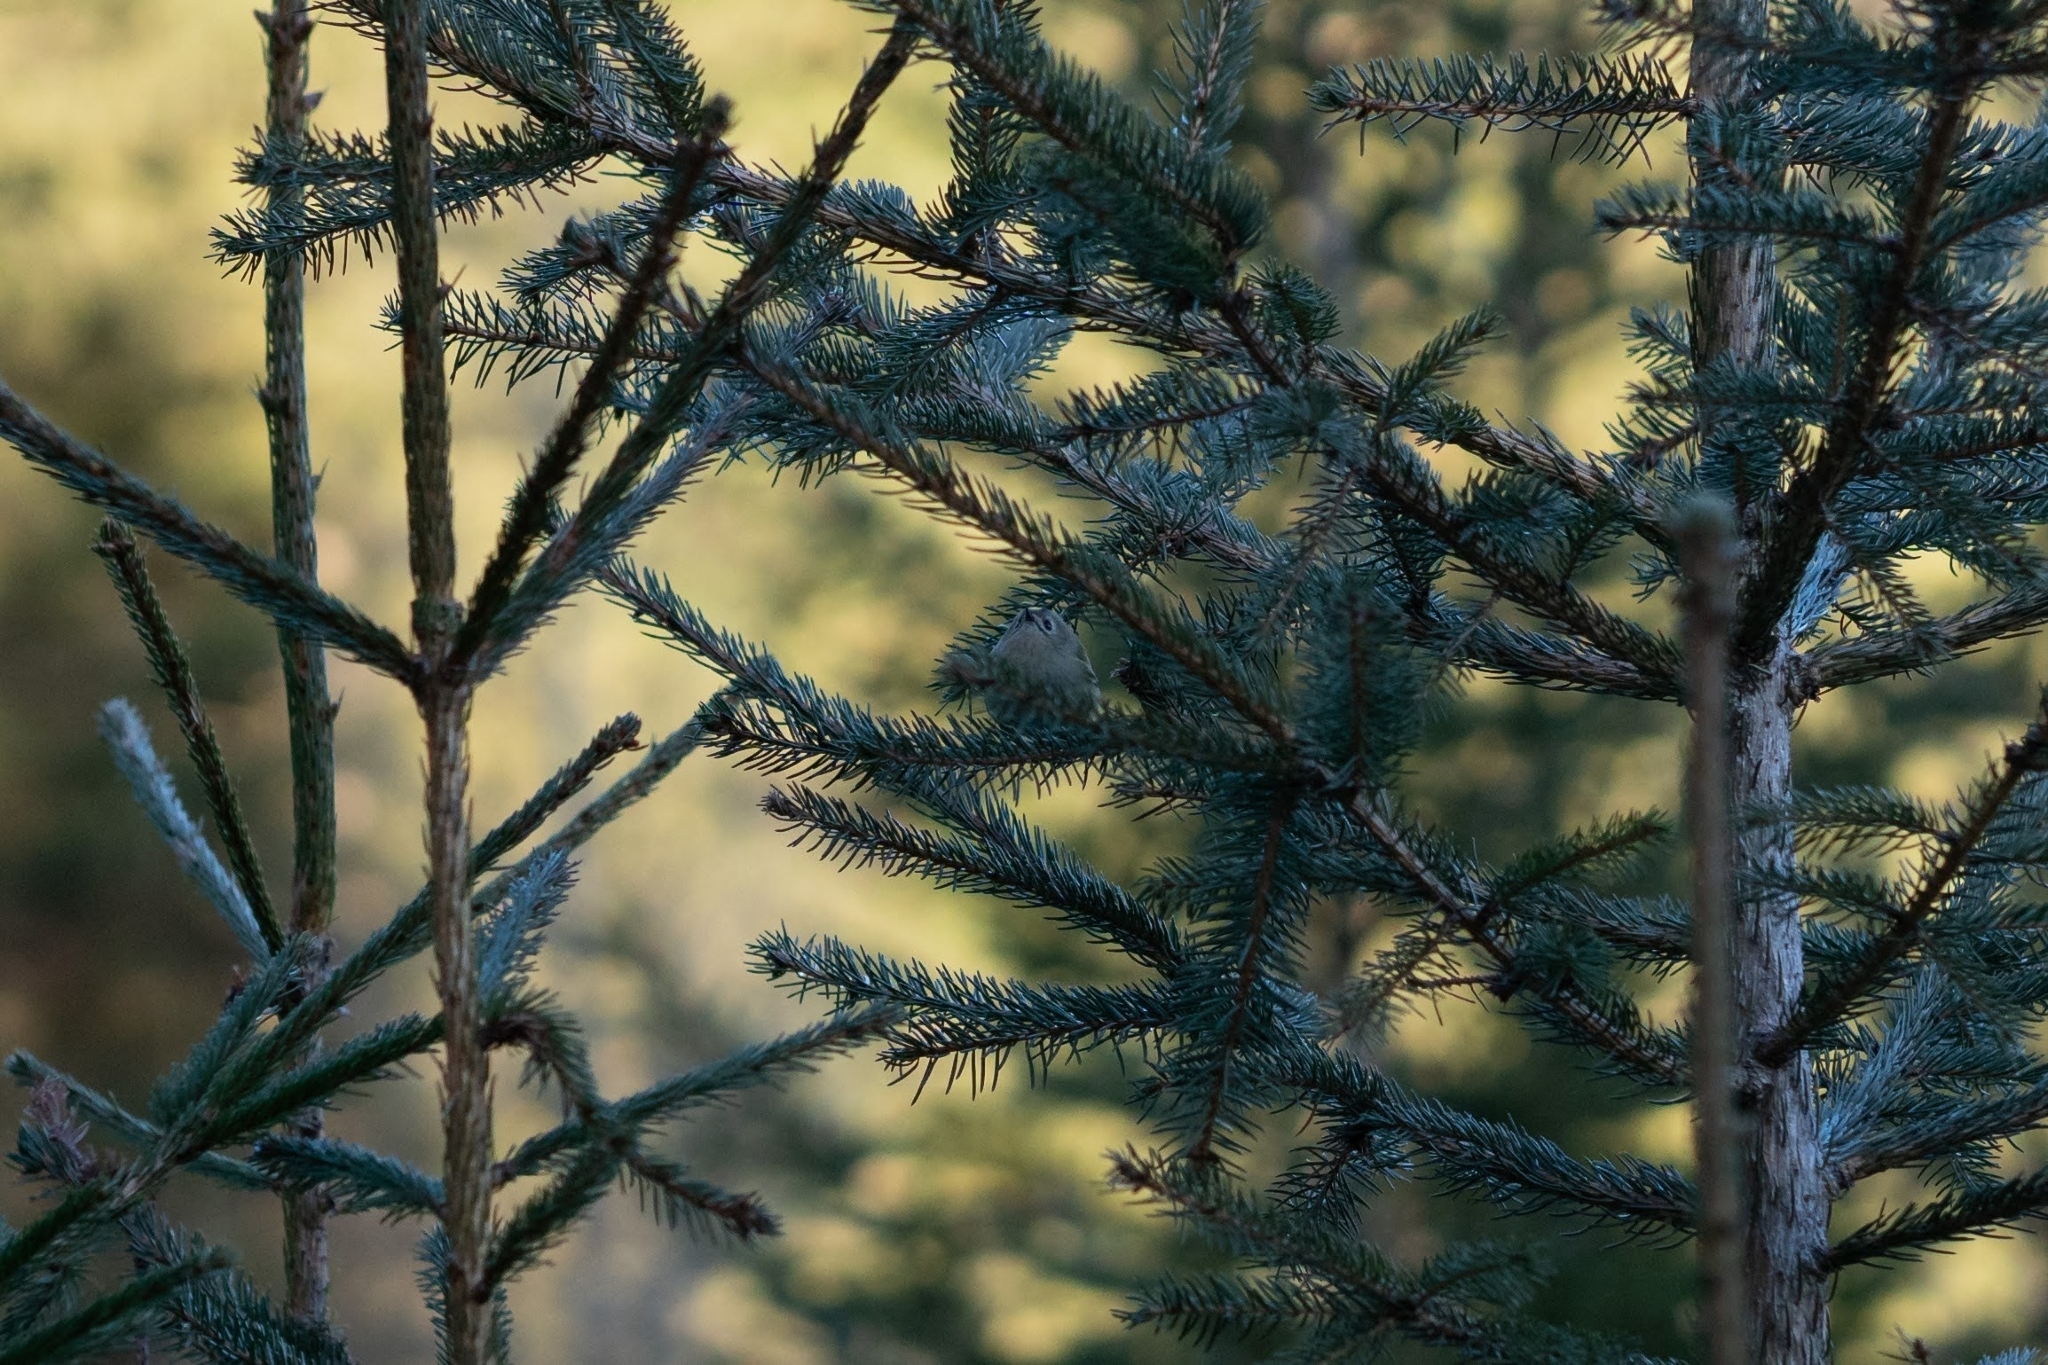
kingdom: Animalia
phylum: Chordata
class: Aves
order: Passeriformes
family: Regulidae
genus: Regulus
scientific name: Regulus regulus
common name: Goldcrest
